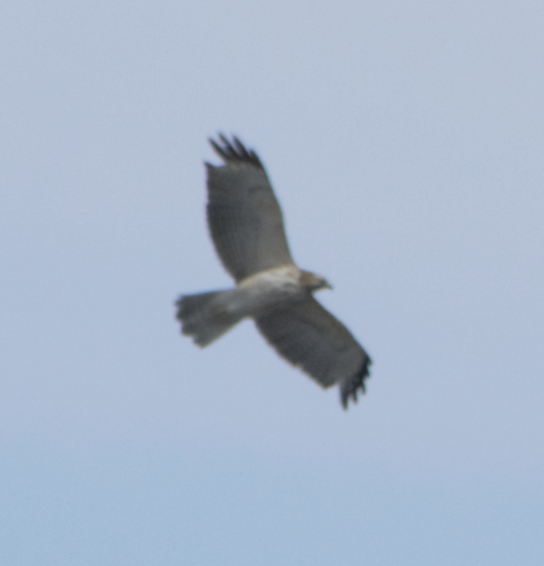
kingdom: Animalia
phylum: Chordata
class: Aves
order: Accipitriformes
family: Accipitridae
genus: Buteo
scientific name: Buteo lineatus
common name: Red-shouldered hawk
